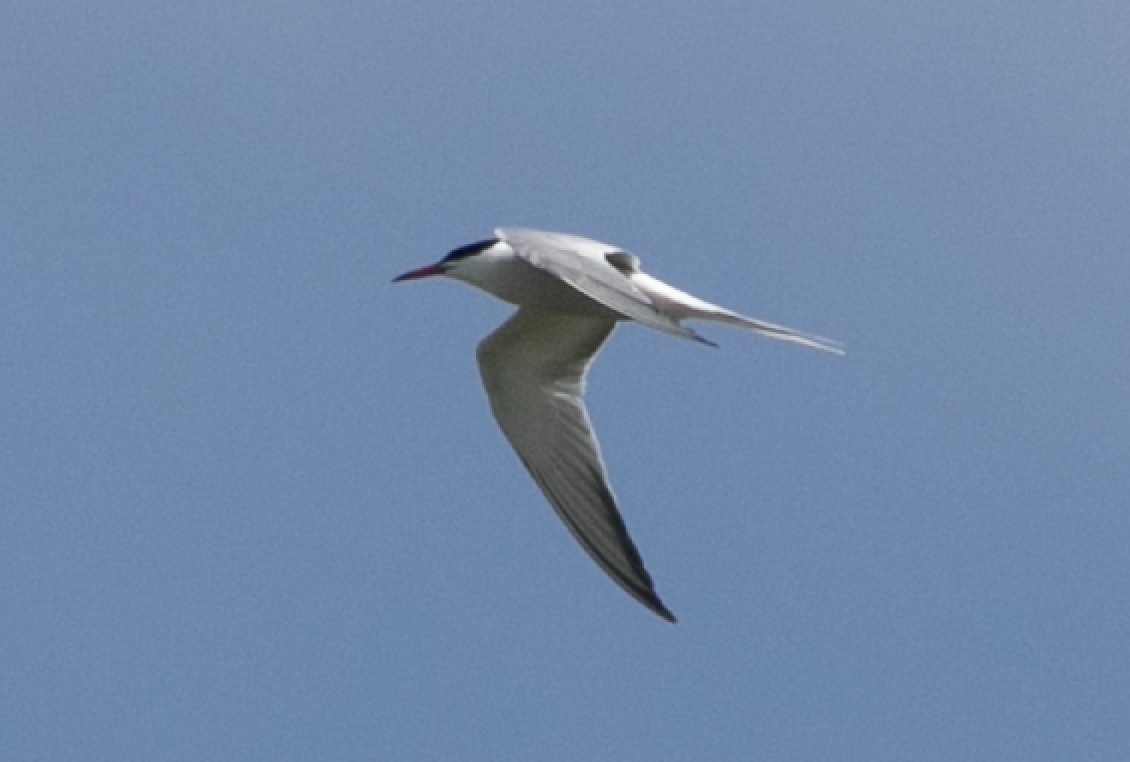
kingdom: Animalia
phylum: Chordata
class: Aves
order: Charadriiformes
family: Laridae
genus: Sterna
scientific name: Sterna hirundo
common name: Common tern
